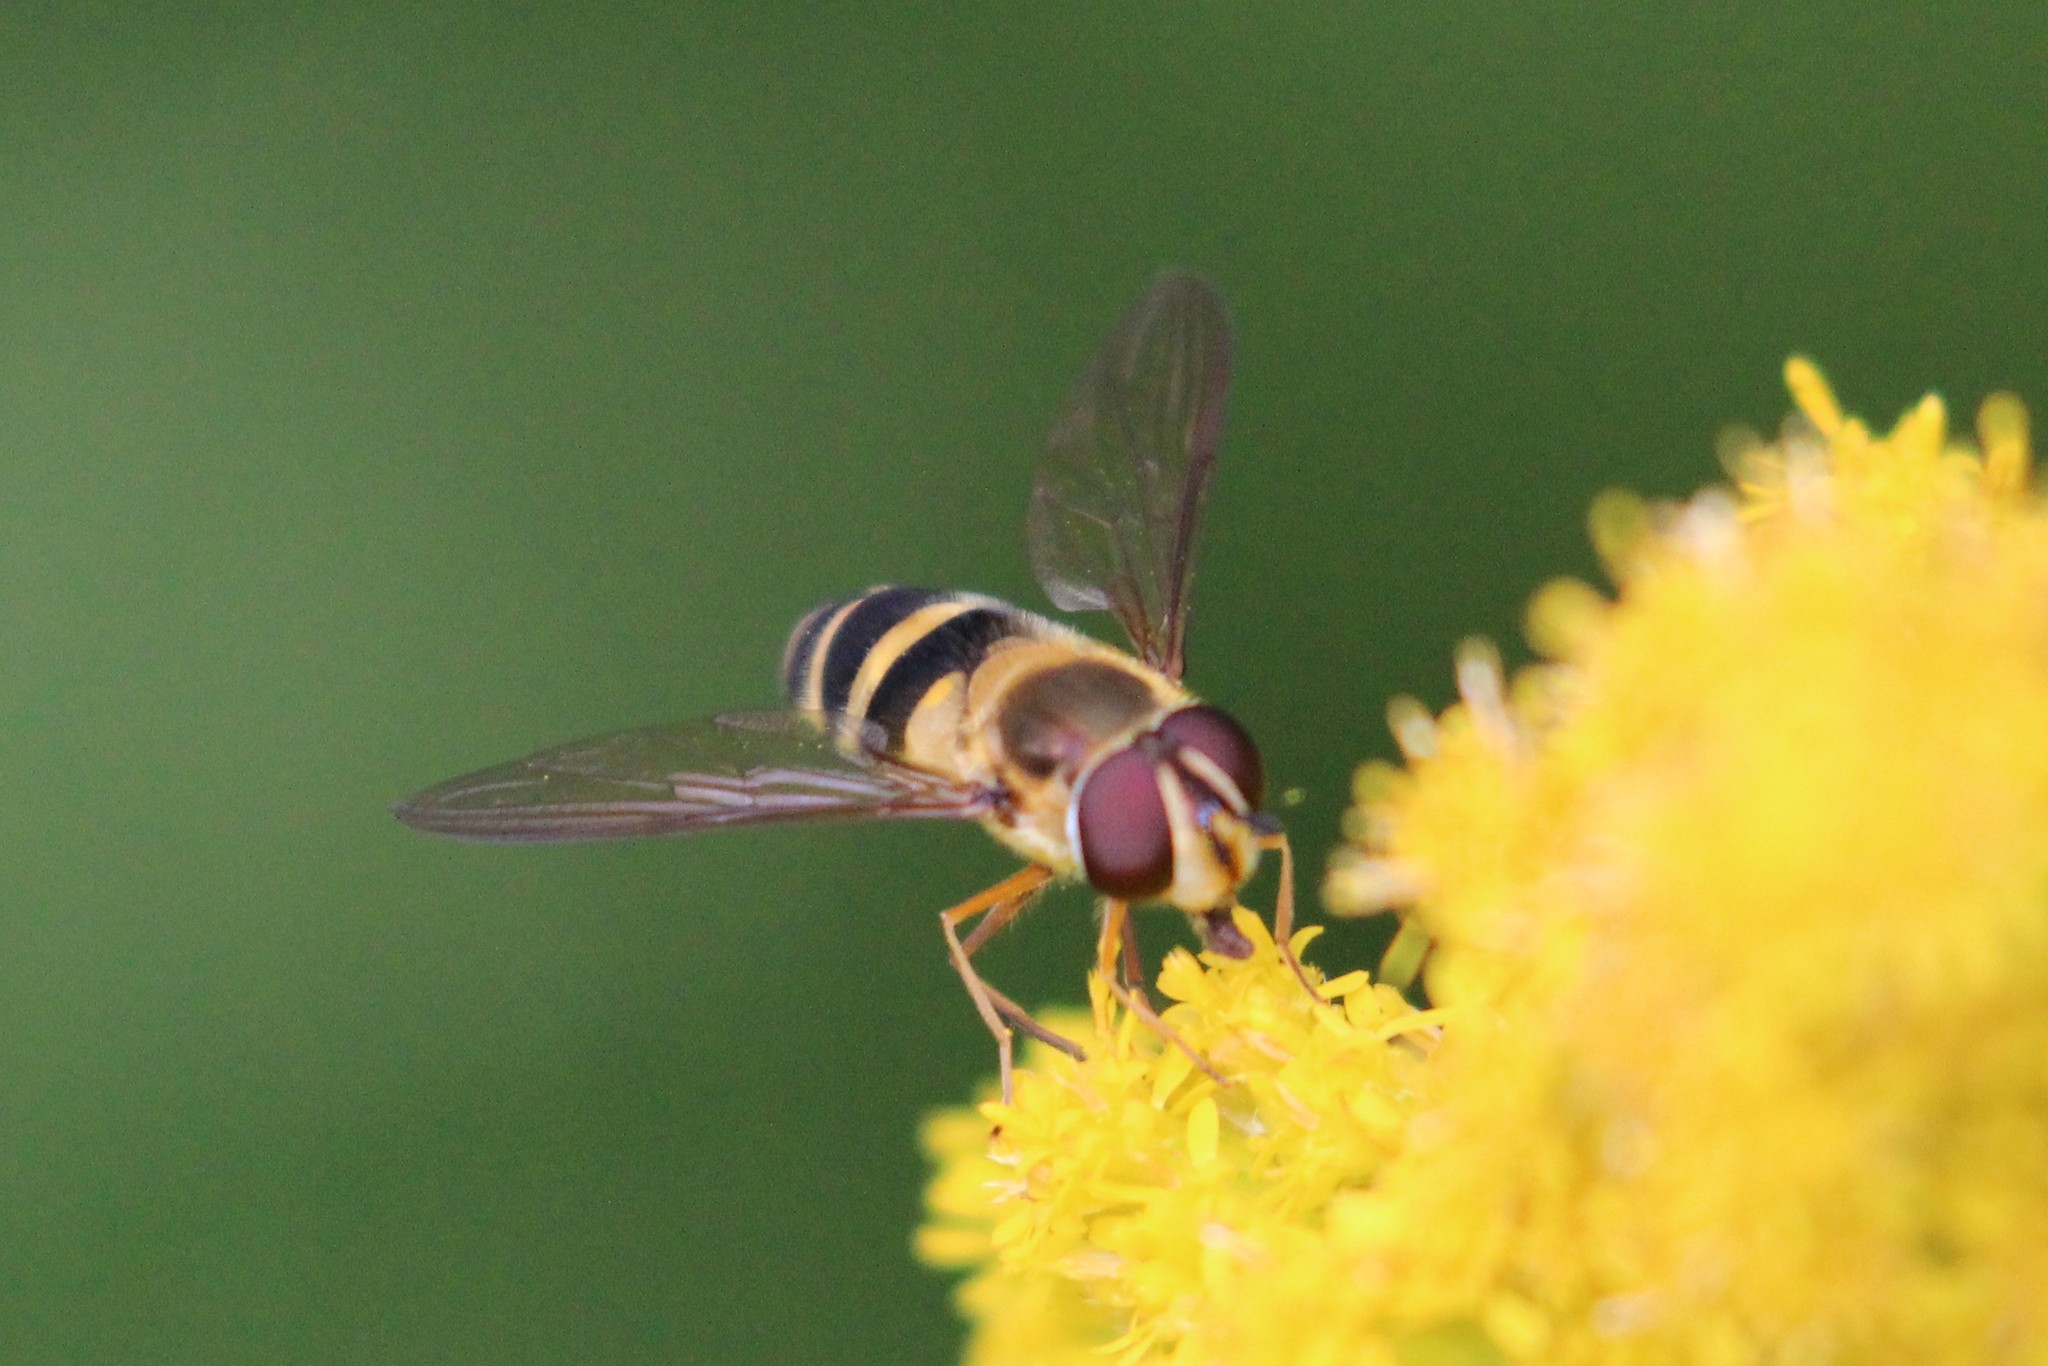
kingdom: Animalia
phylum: Arthropoda
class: Insecta
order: Diptera
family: Syrphidae
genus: Epistrophe
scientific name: Epistrophe grossulariae
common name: Black-horned smoothtail
